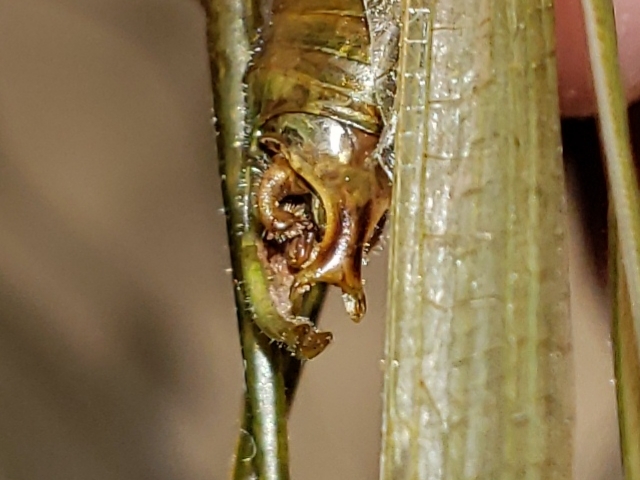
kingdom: Animalia
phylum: Arthropoda
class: Insecta
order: Orthoptera
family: Tettigoniidae
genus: Scudderia
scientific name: Scudderia texensis
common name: Texas bush katydid
